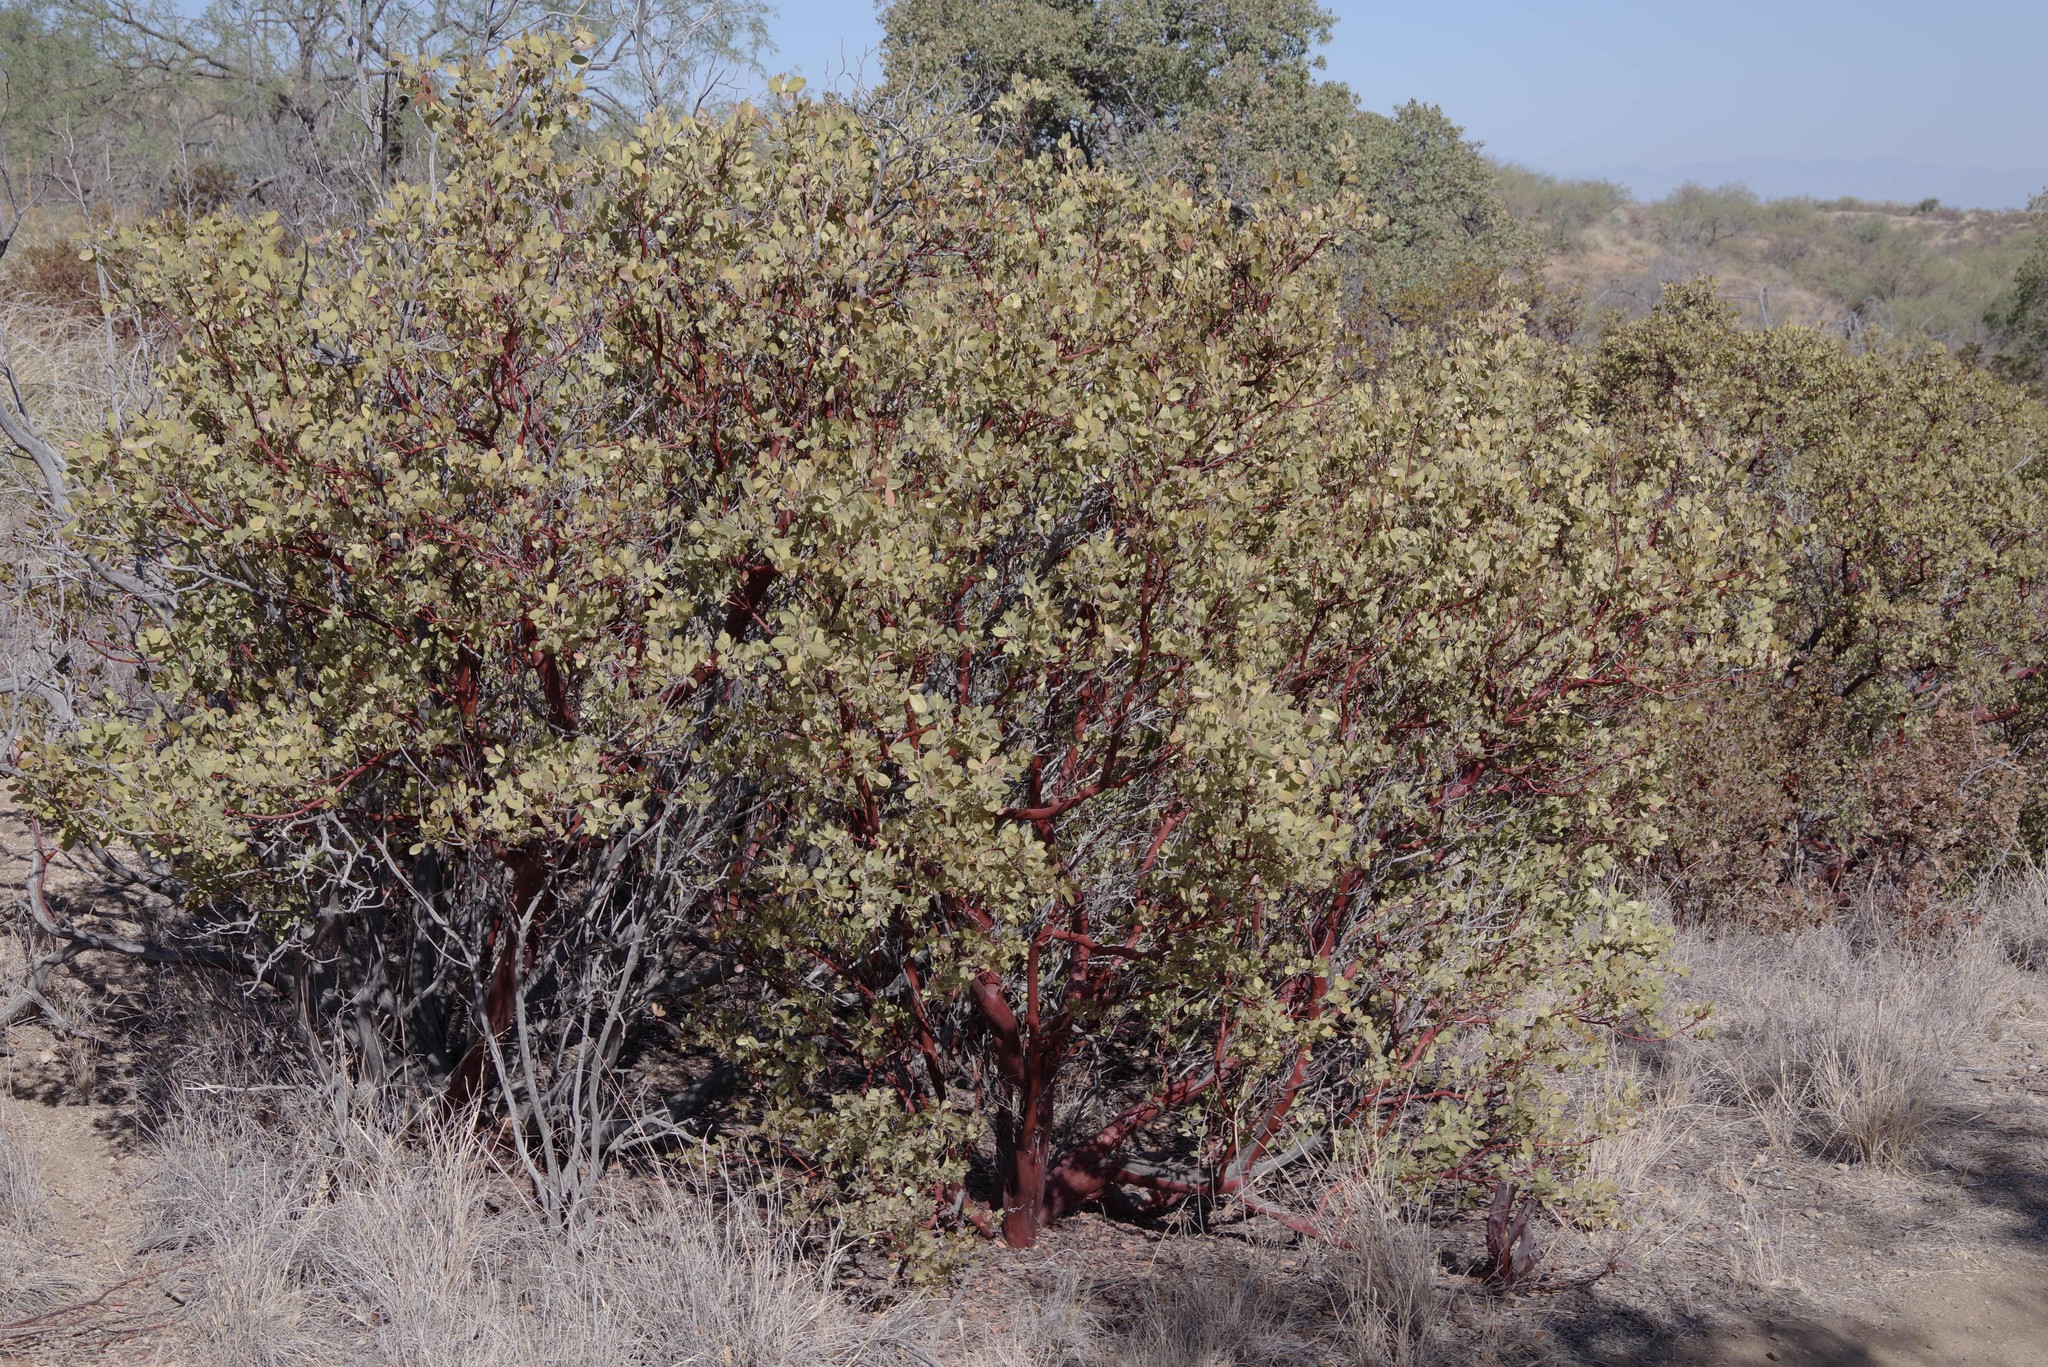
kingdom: Plantae
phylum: Tracheophyta
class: Magnoliopsida
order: Ericales
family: Ericaceae
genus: Arctostaphylos
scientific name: Arctostaphylos pungens
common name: Mexican manzanita
